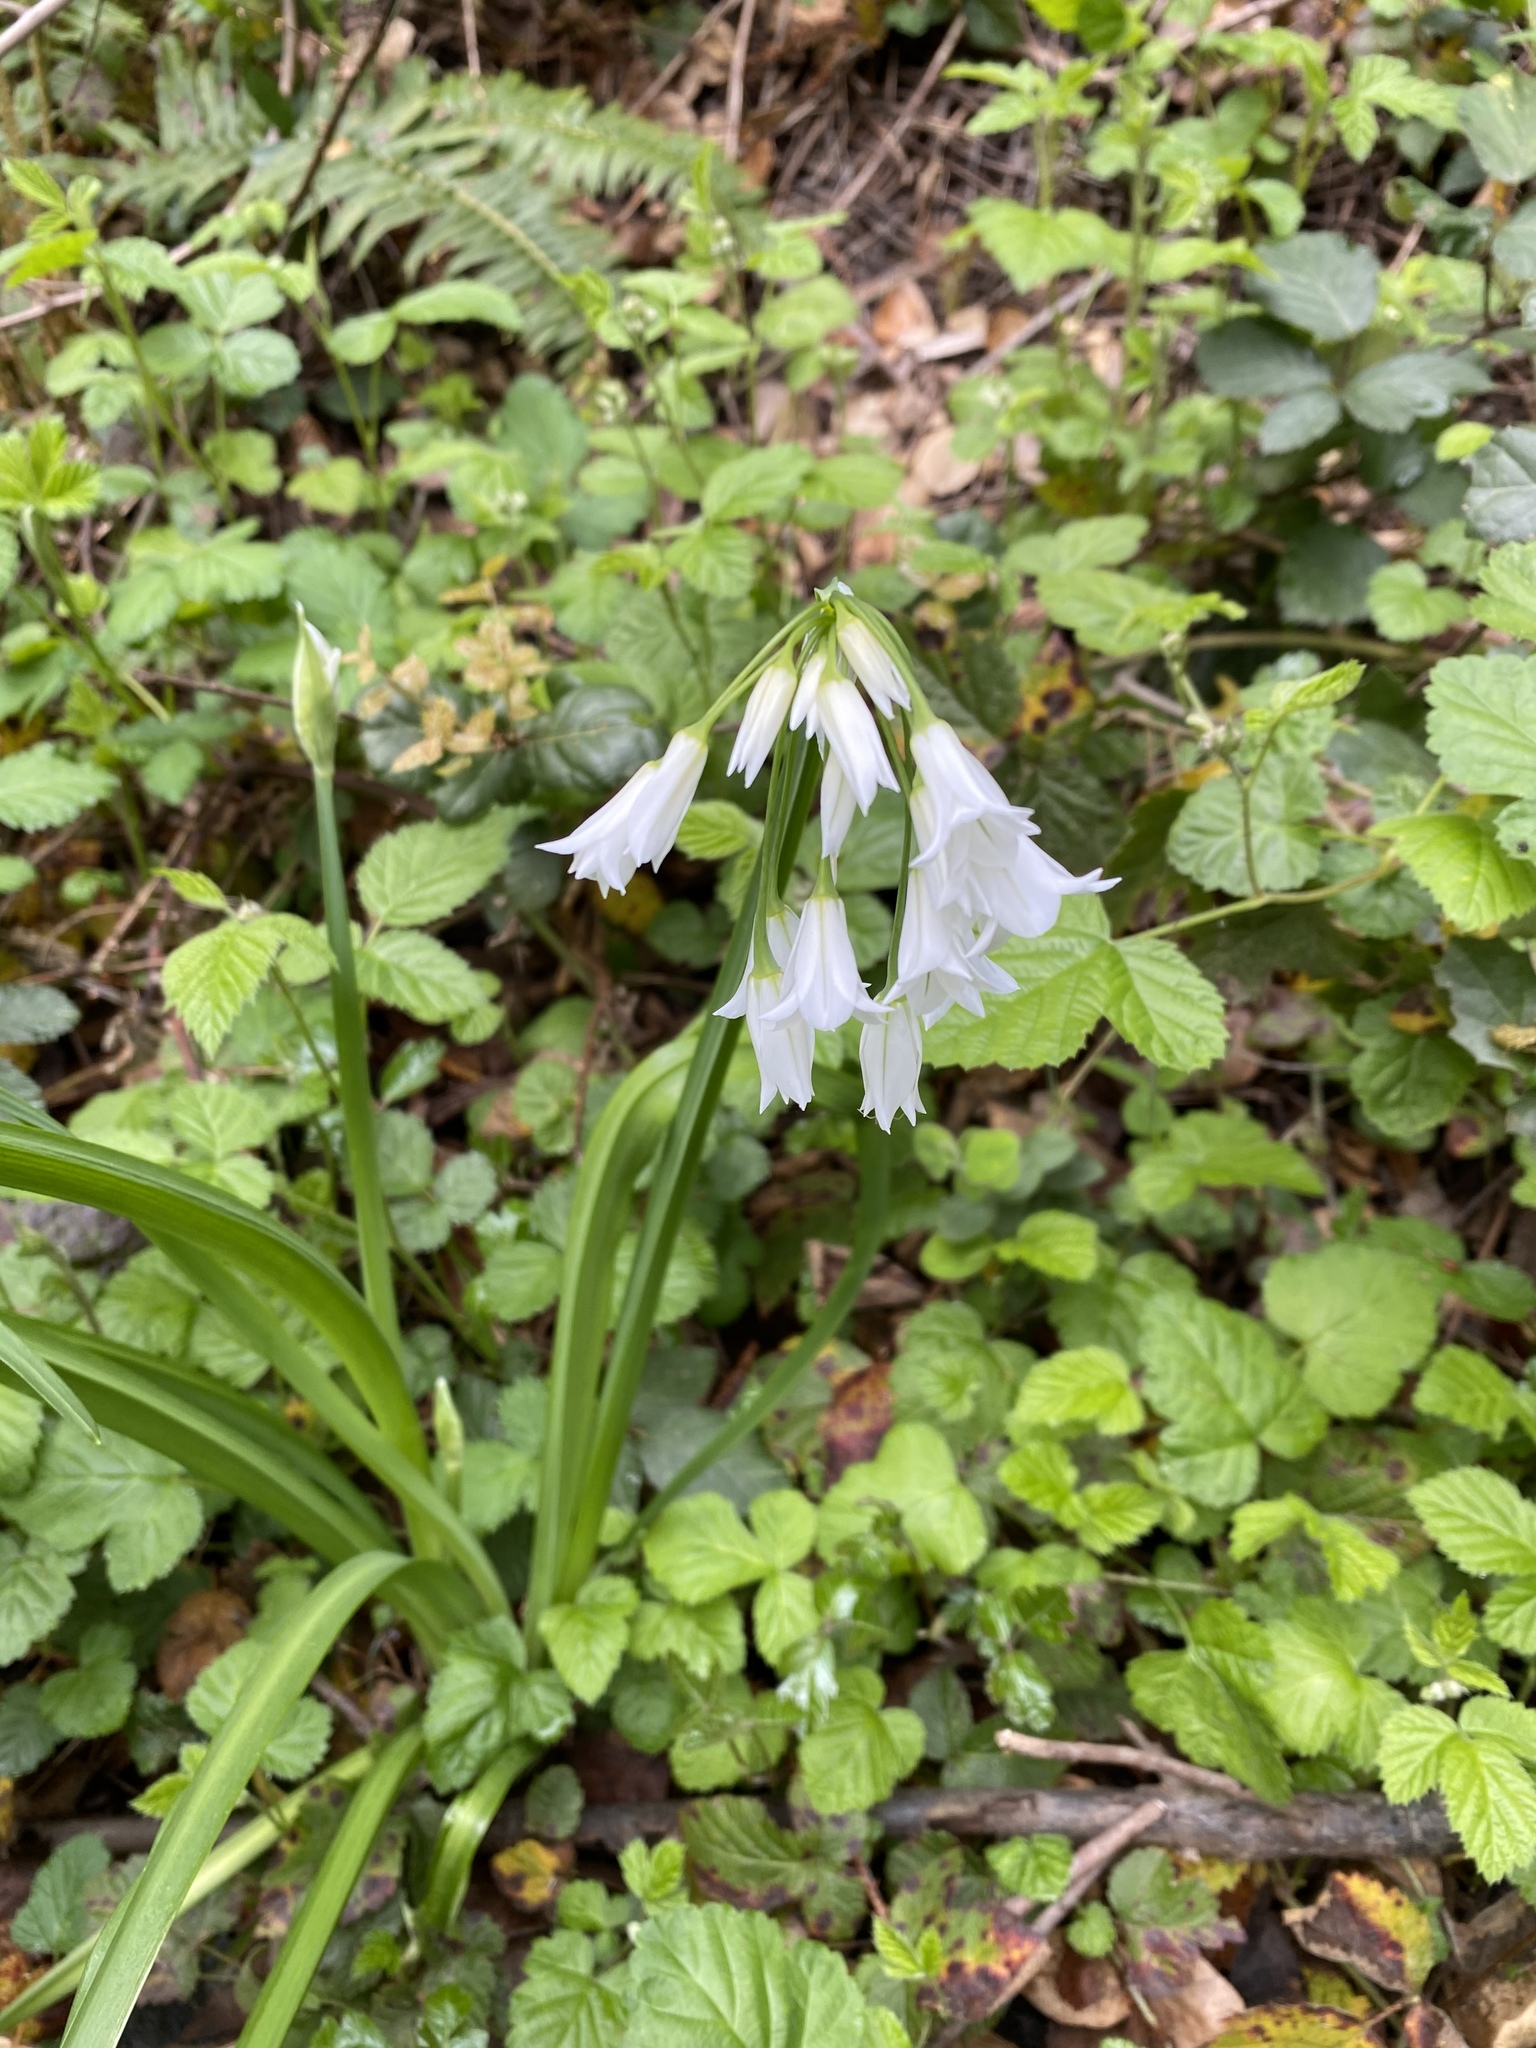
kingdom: Plantae
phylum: Tracheophyta
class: Liliopsida
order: Asparagales
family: Amaryllidaceae
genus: Allium
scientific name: Allium triquetrum
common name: Three-cornered garlic
